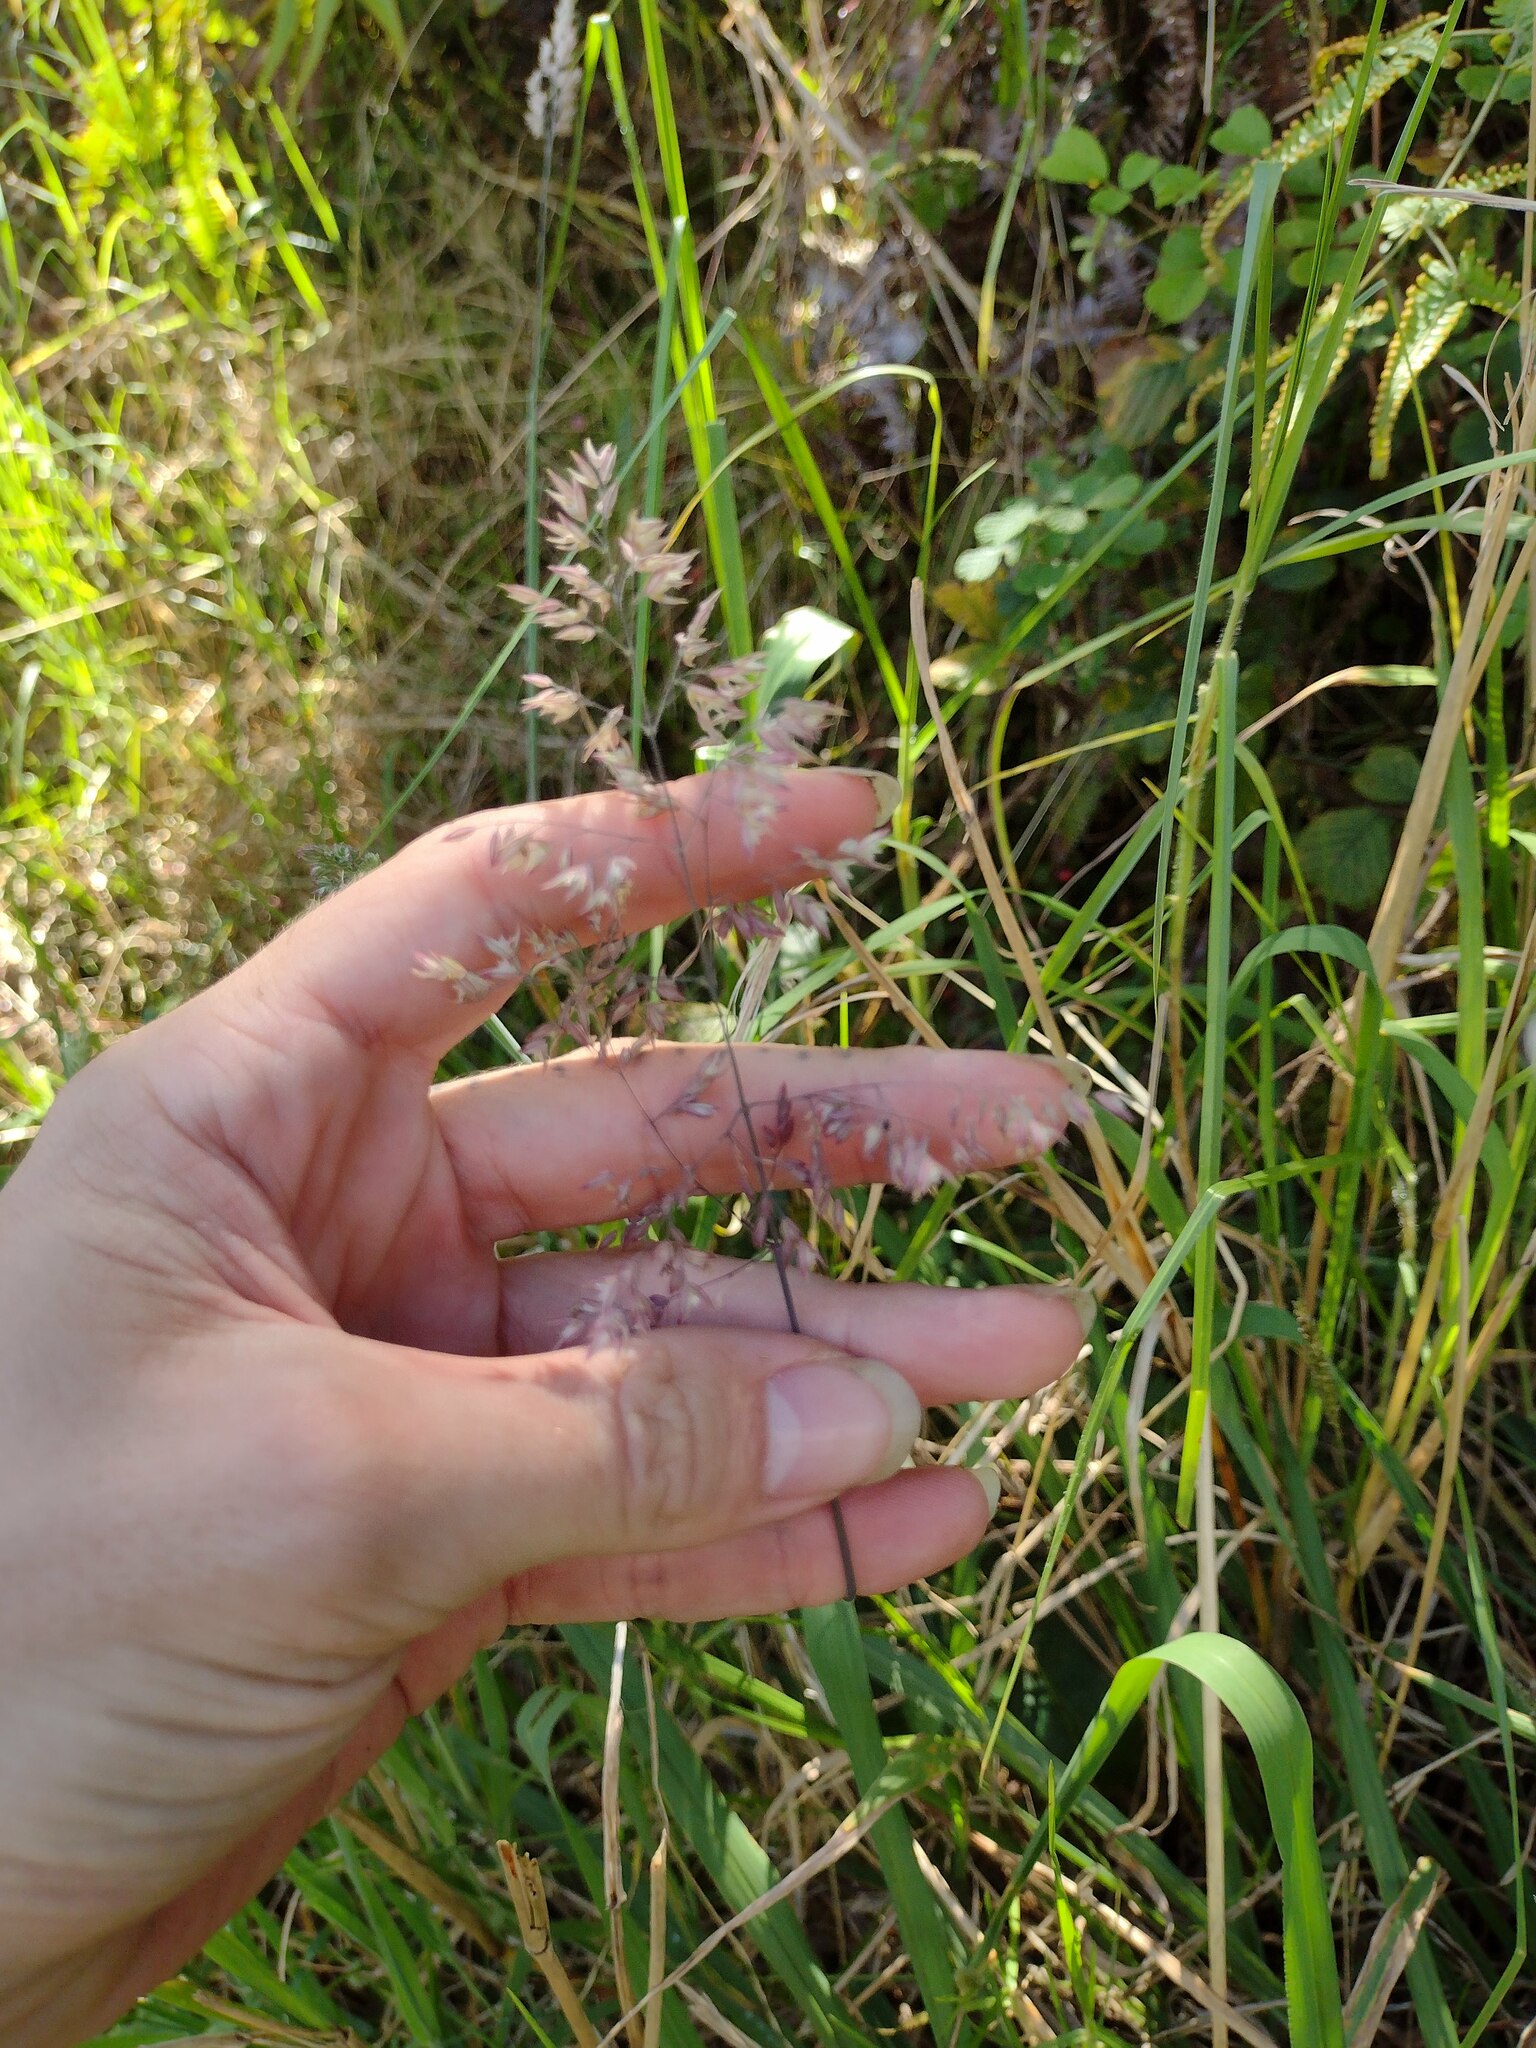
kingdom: Plantae
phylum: Tracheophyta
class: Liliopsida
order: Poales
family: Poaceae
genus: Holcus
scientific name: Holcus lanatus
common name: Yorkshire-fog
